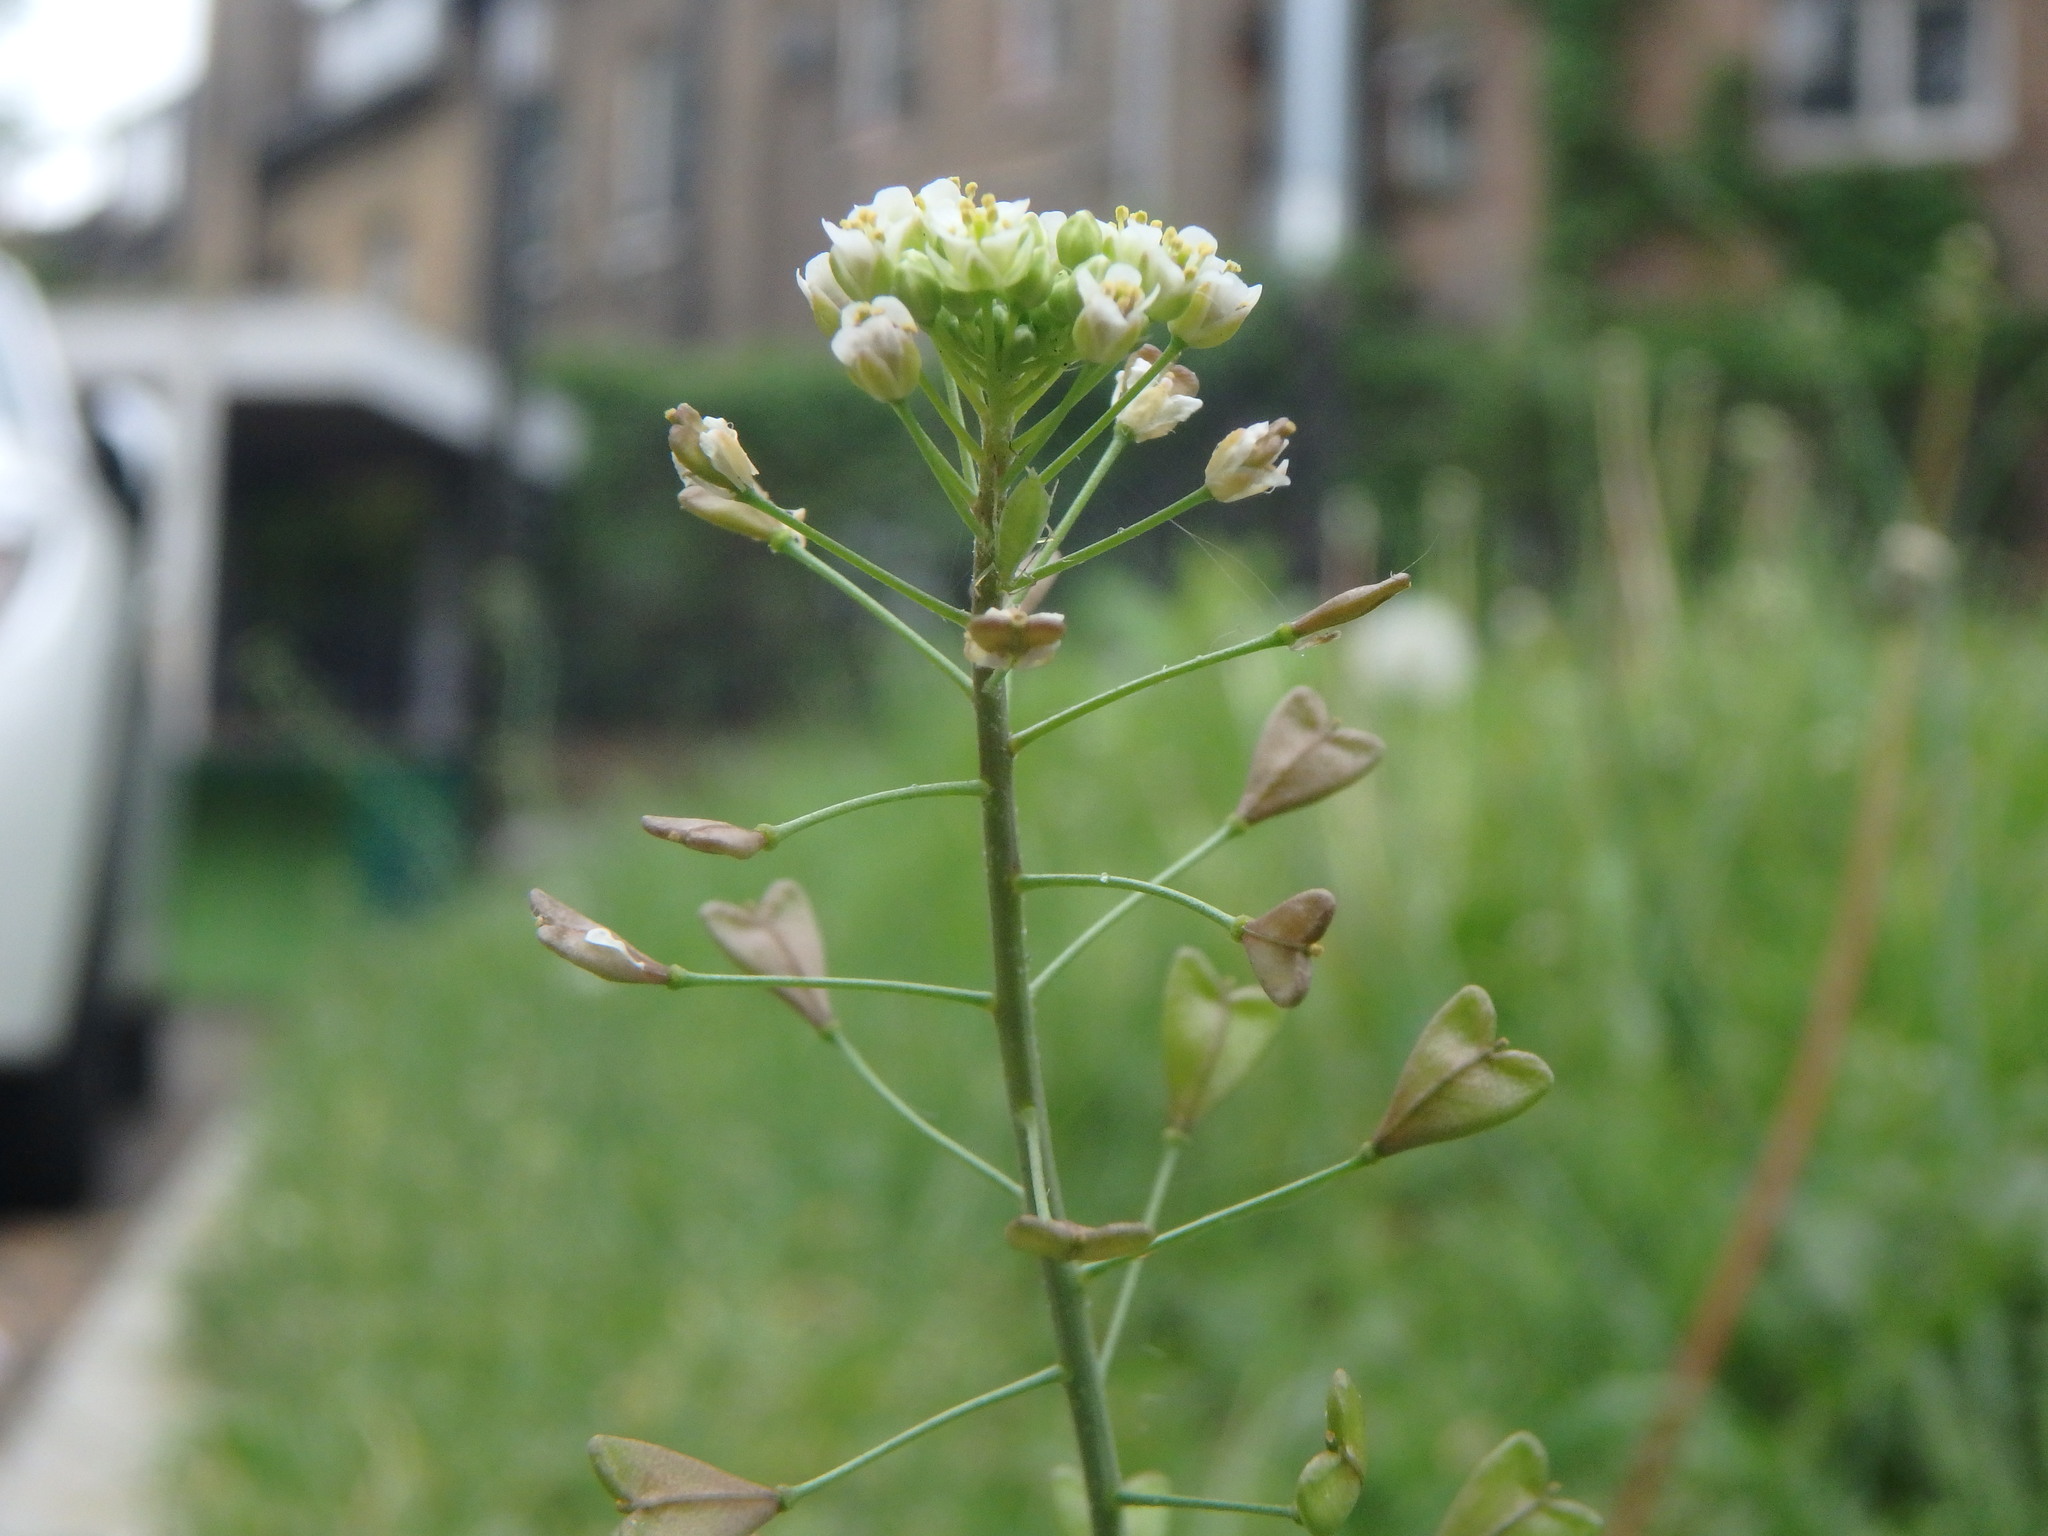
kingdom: Plantae
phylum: Tracheophyta
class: Magnoliopsida
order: Brassicales
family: Brassicaceae
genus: Capsella
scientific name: Capsella bursa-pastoris
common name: Shepherd's purse
